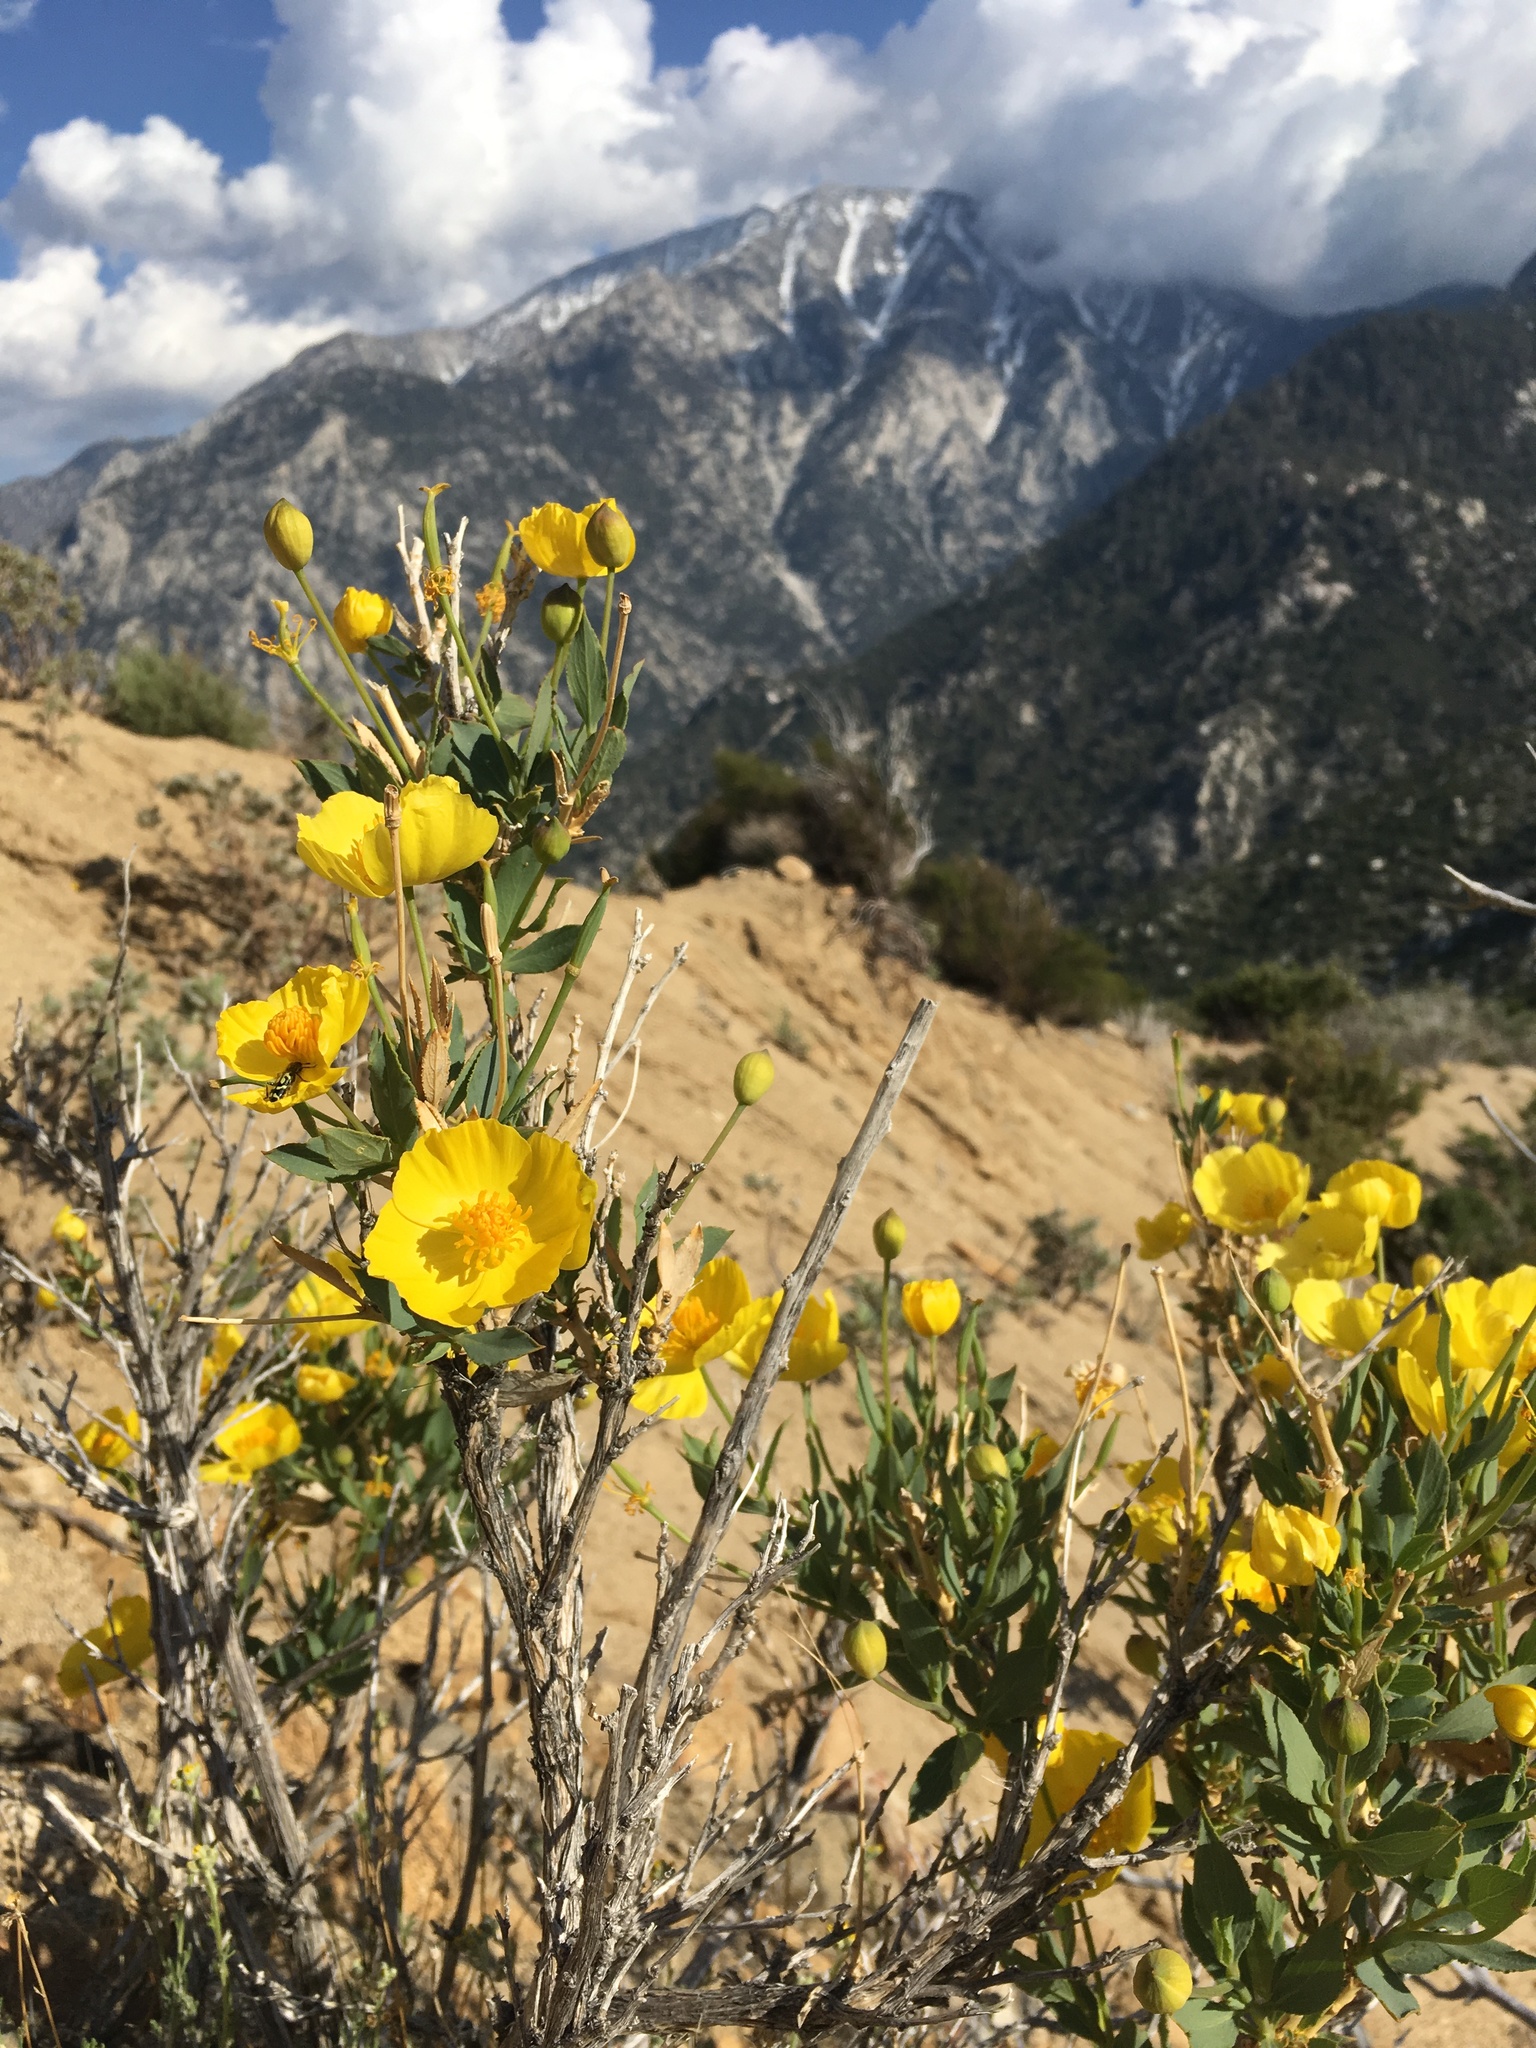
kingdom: Plantae
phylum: Tracheophyta
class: Magnoliopsida
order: Ranunculales
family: Papaveraceae
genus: Dendromecon
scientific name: Dendromecon rigida
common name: Tree poppy
